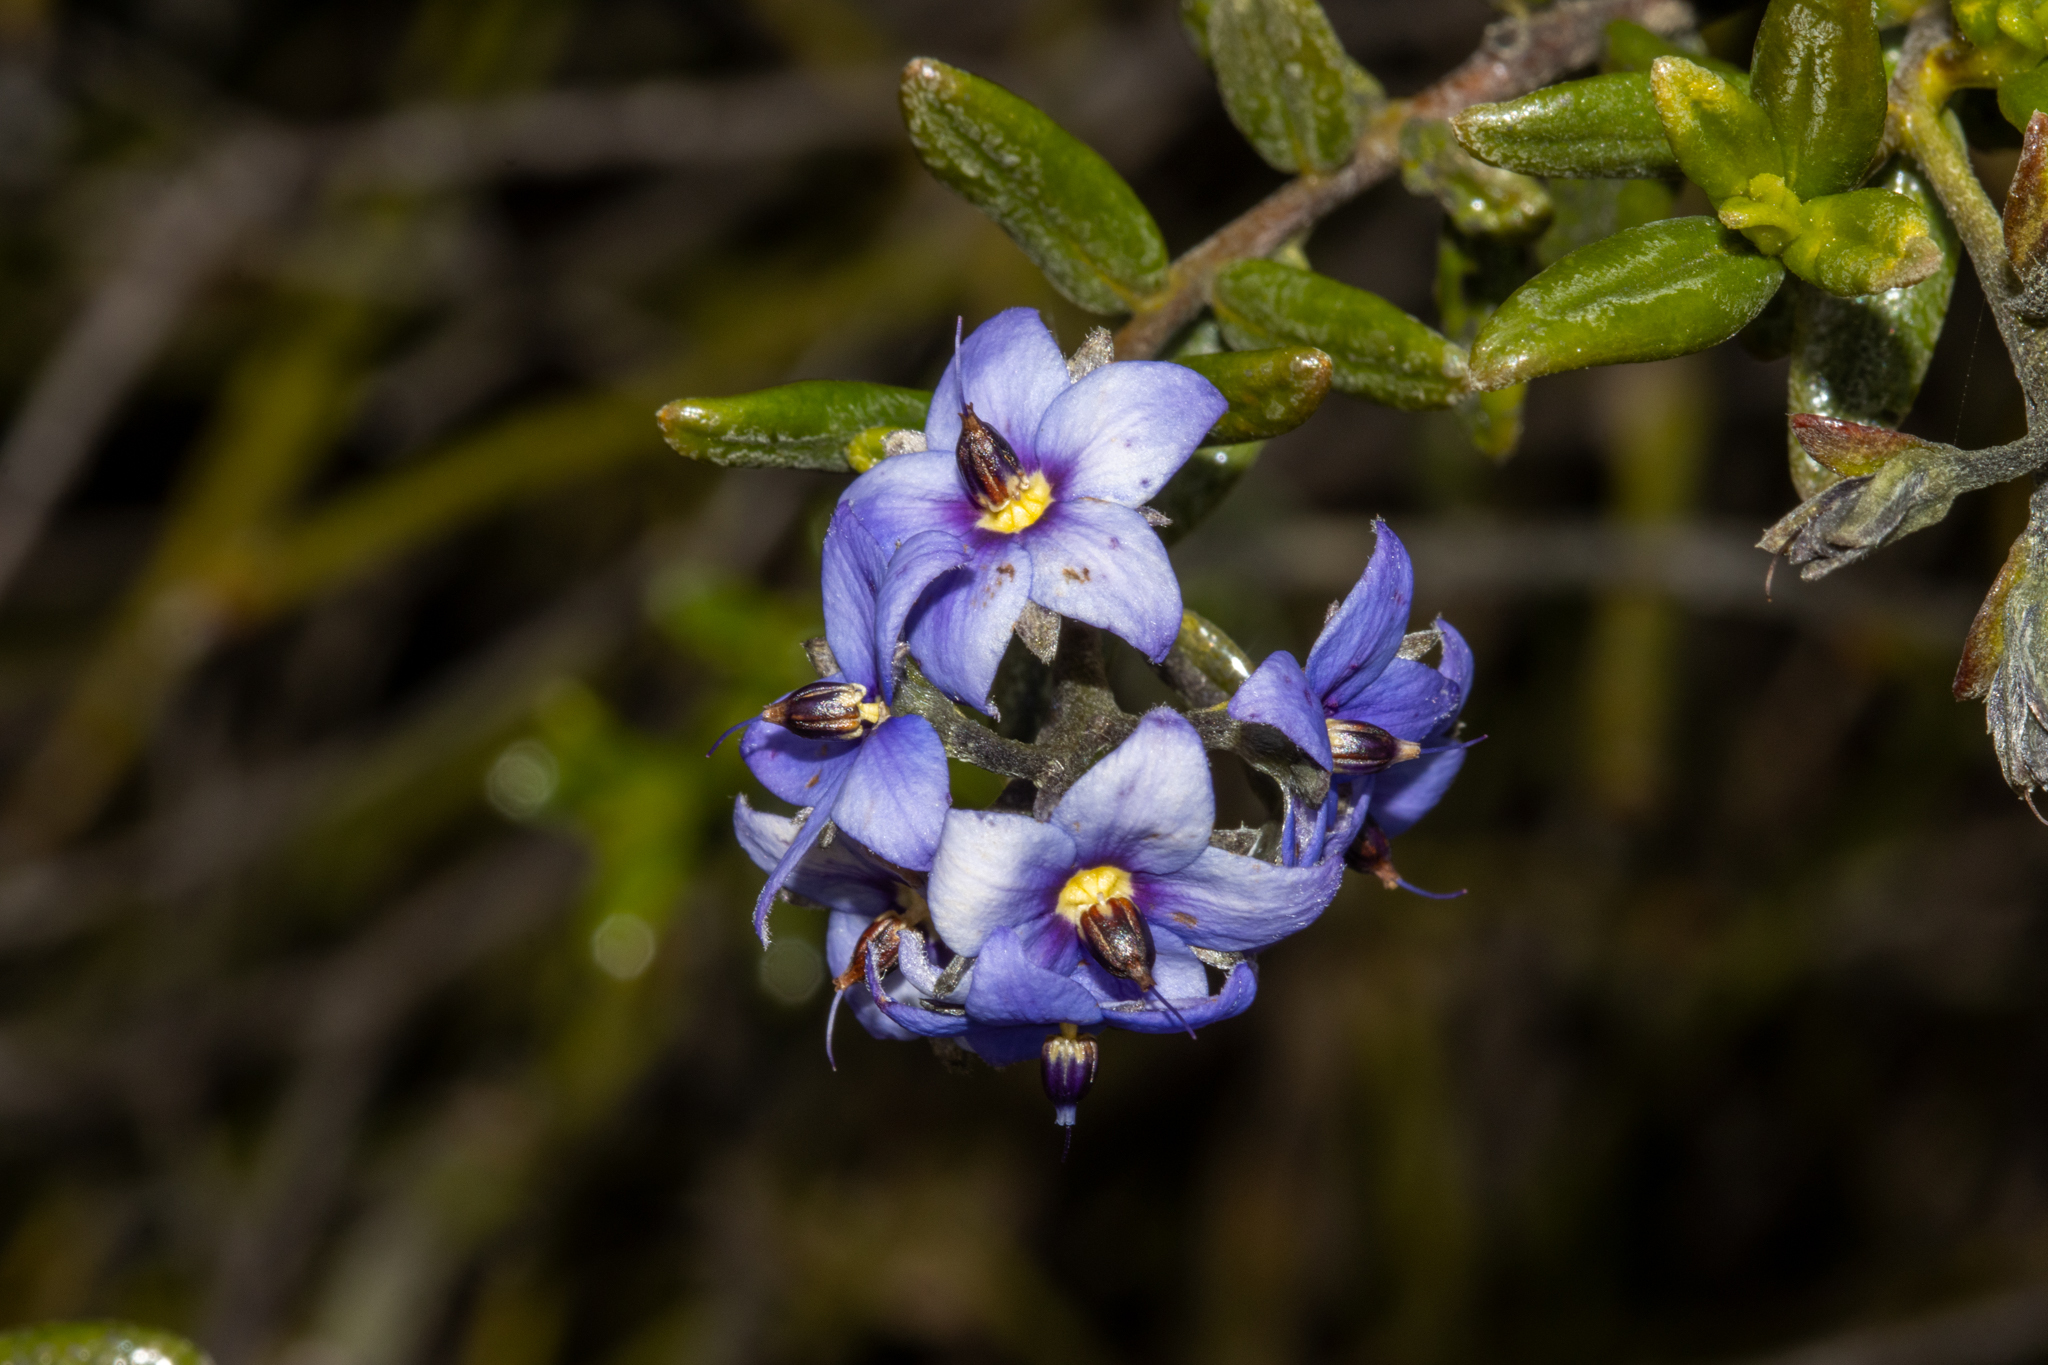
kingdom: Plantae
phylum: Tracheophyta
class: Magnoliopsida
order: Boraginales
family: Ehretiaceae
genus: Halgania
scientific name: Halgania andromedifolia
